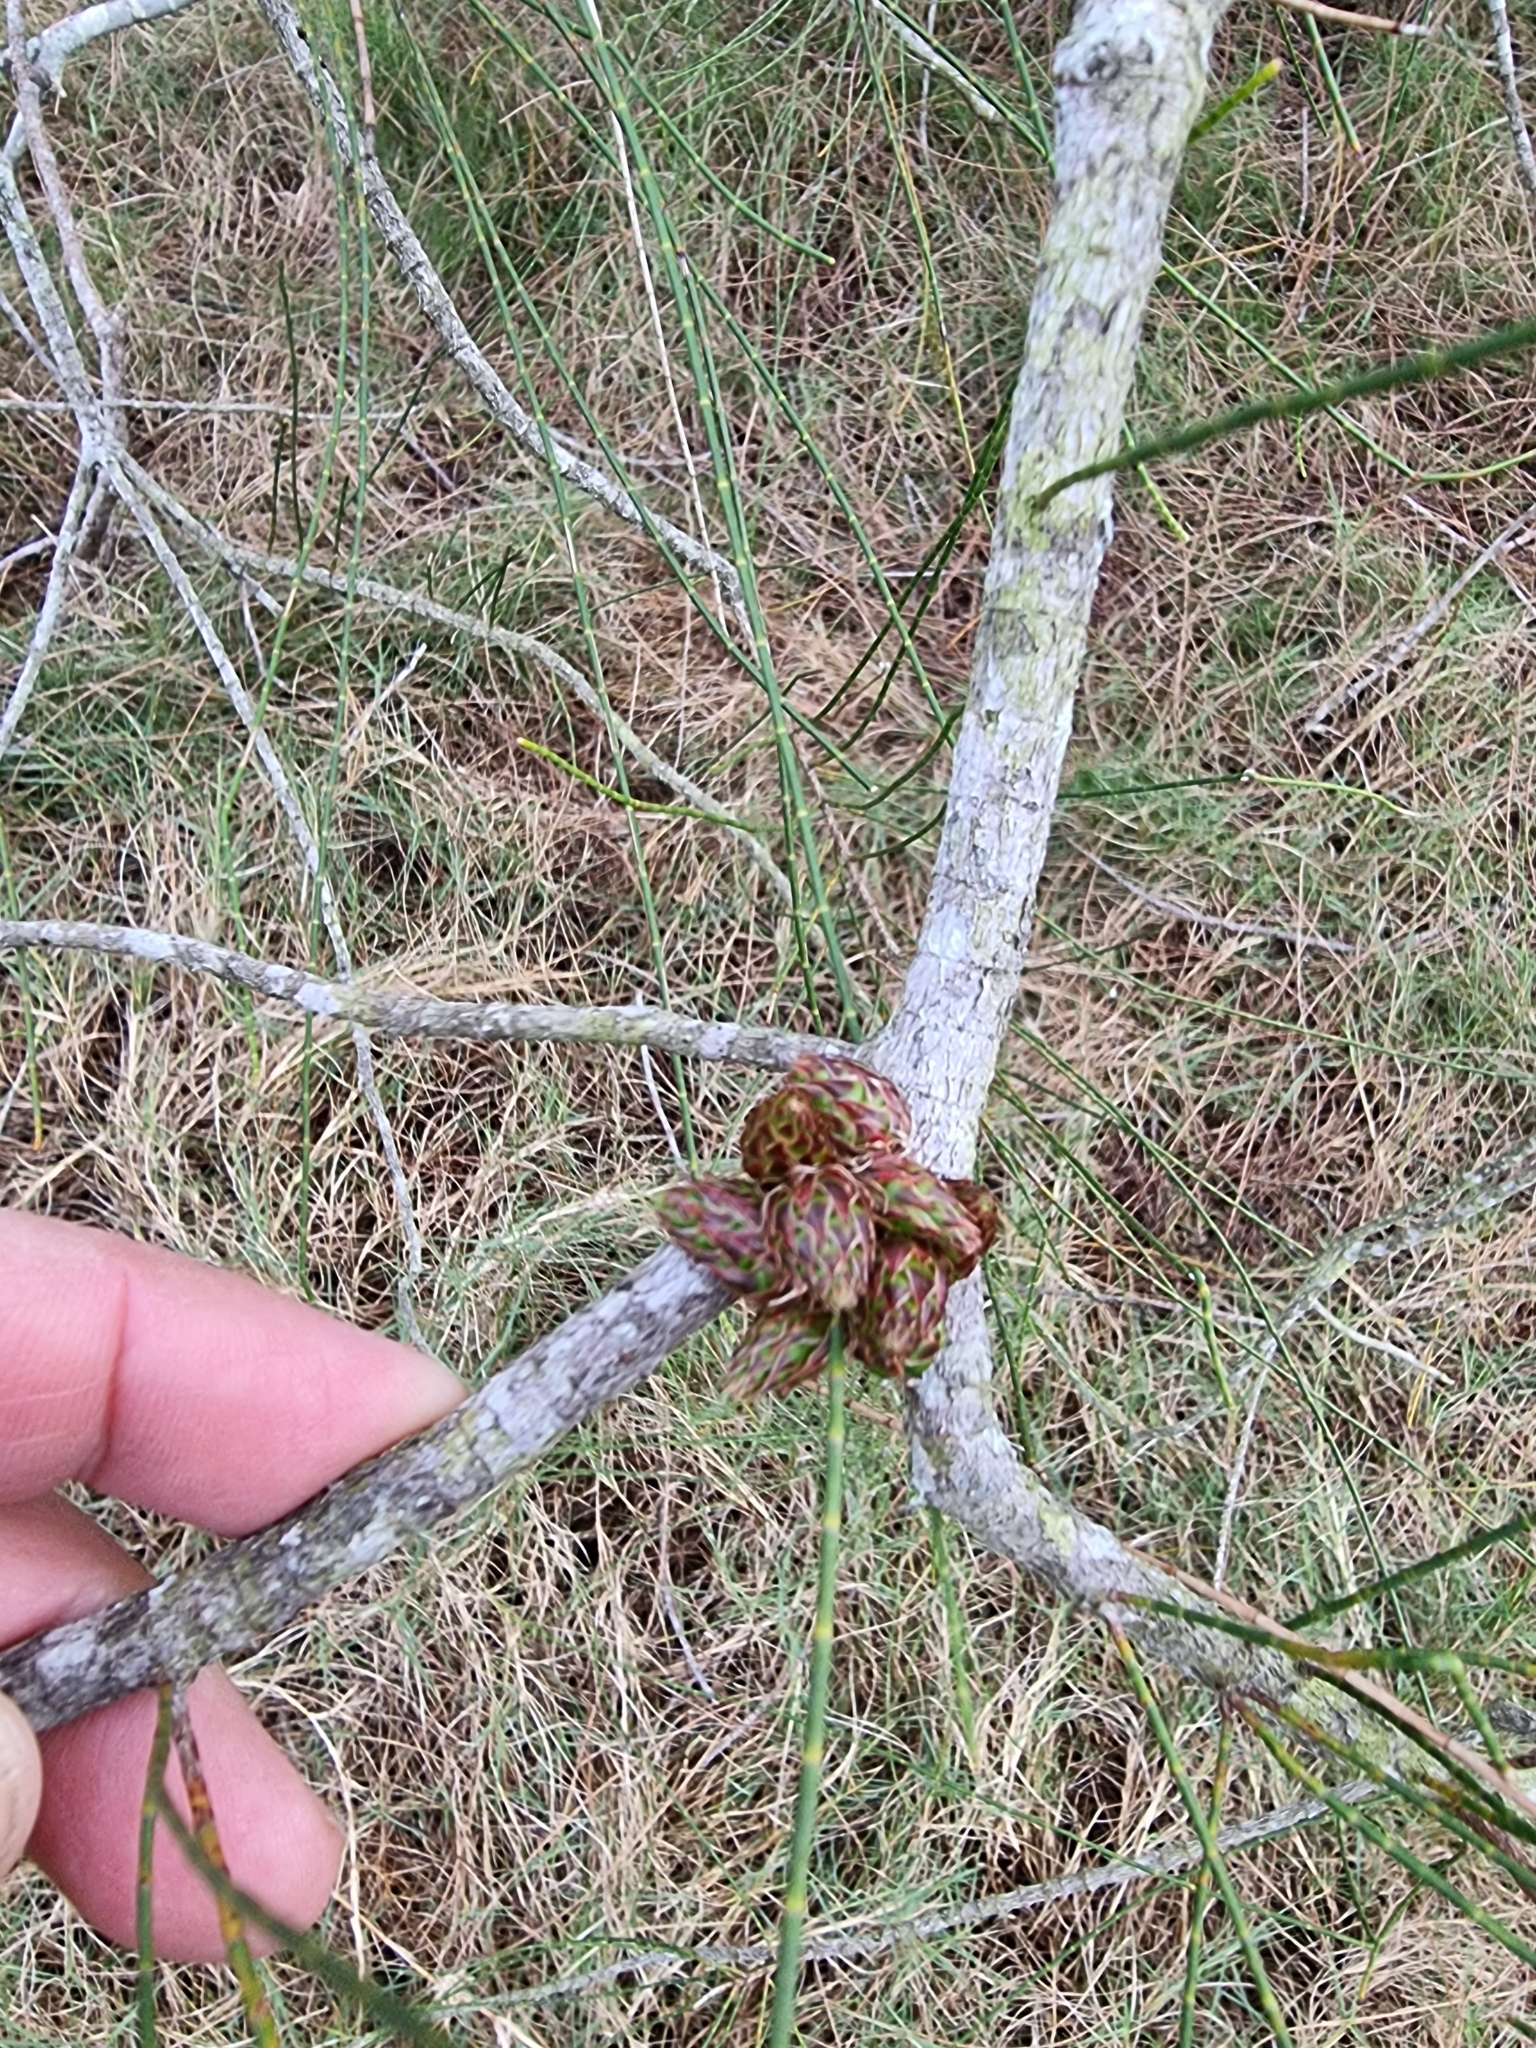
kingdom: Plantae
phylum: Tracheophyta
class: Magnoliopsida
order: Fagales
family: Casuarinaceae
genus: Casuarina
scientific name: Casuarina glauca
